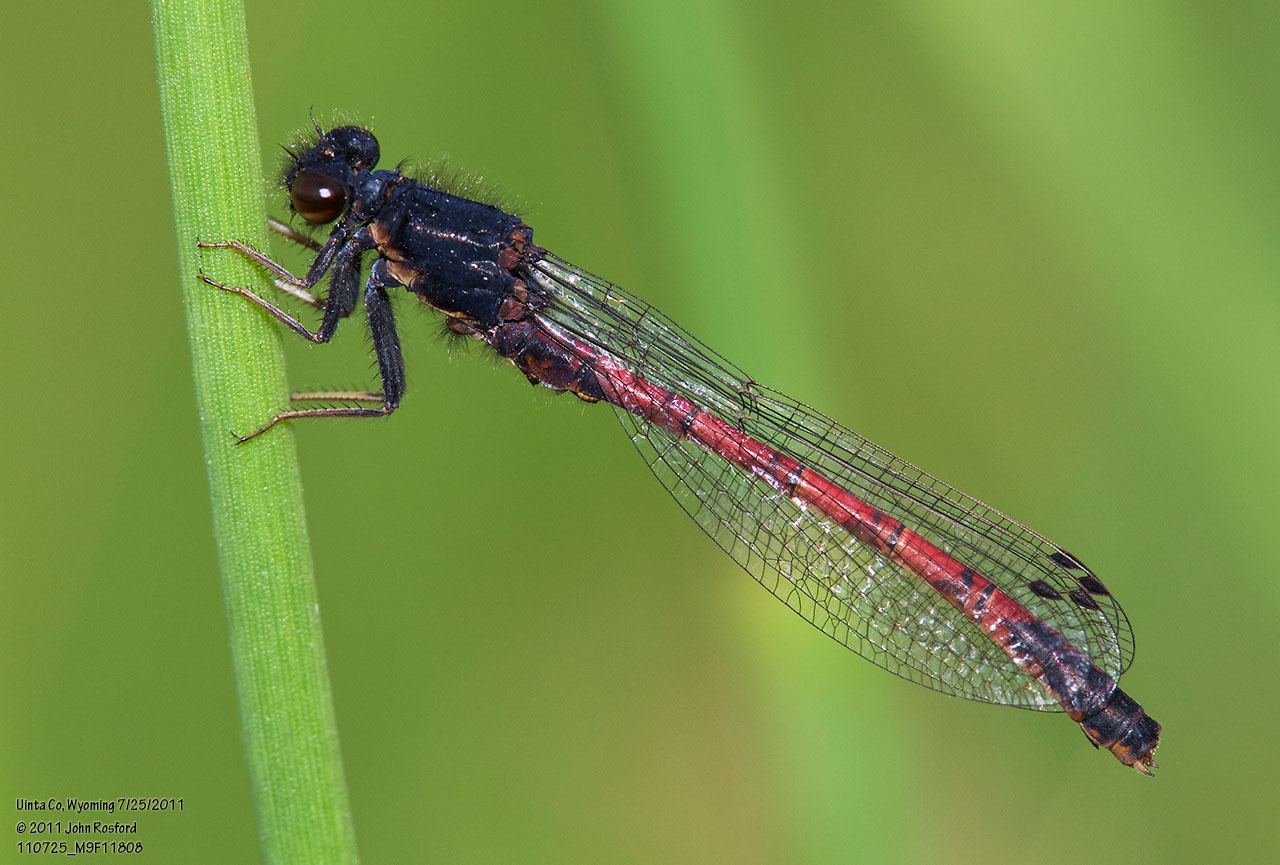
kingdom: Animalia
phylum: Arthropoda
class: Insecta
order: Odonata
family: Coenagrionidae
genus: Amphiagrion
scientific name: Amphiagrion abbreviatum
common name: Western red damsel
